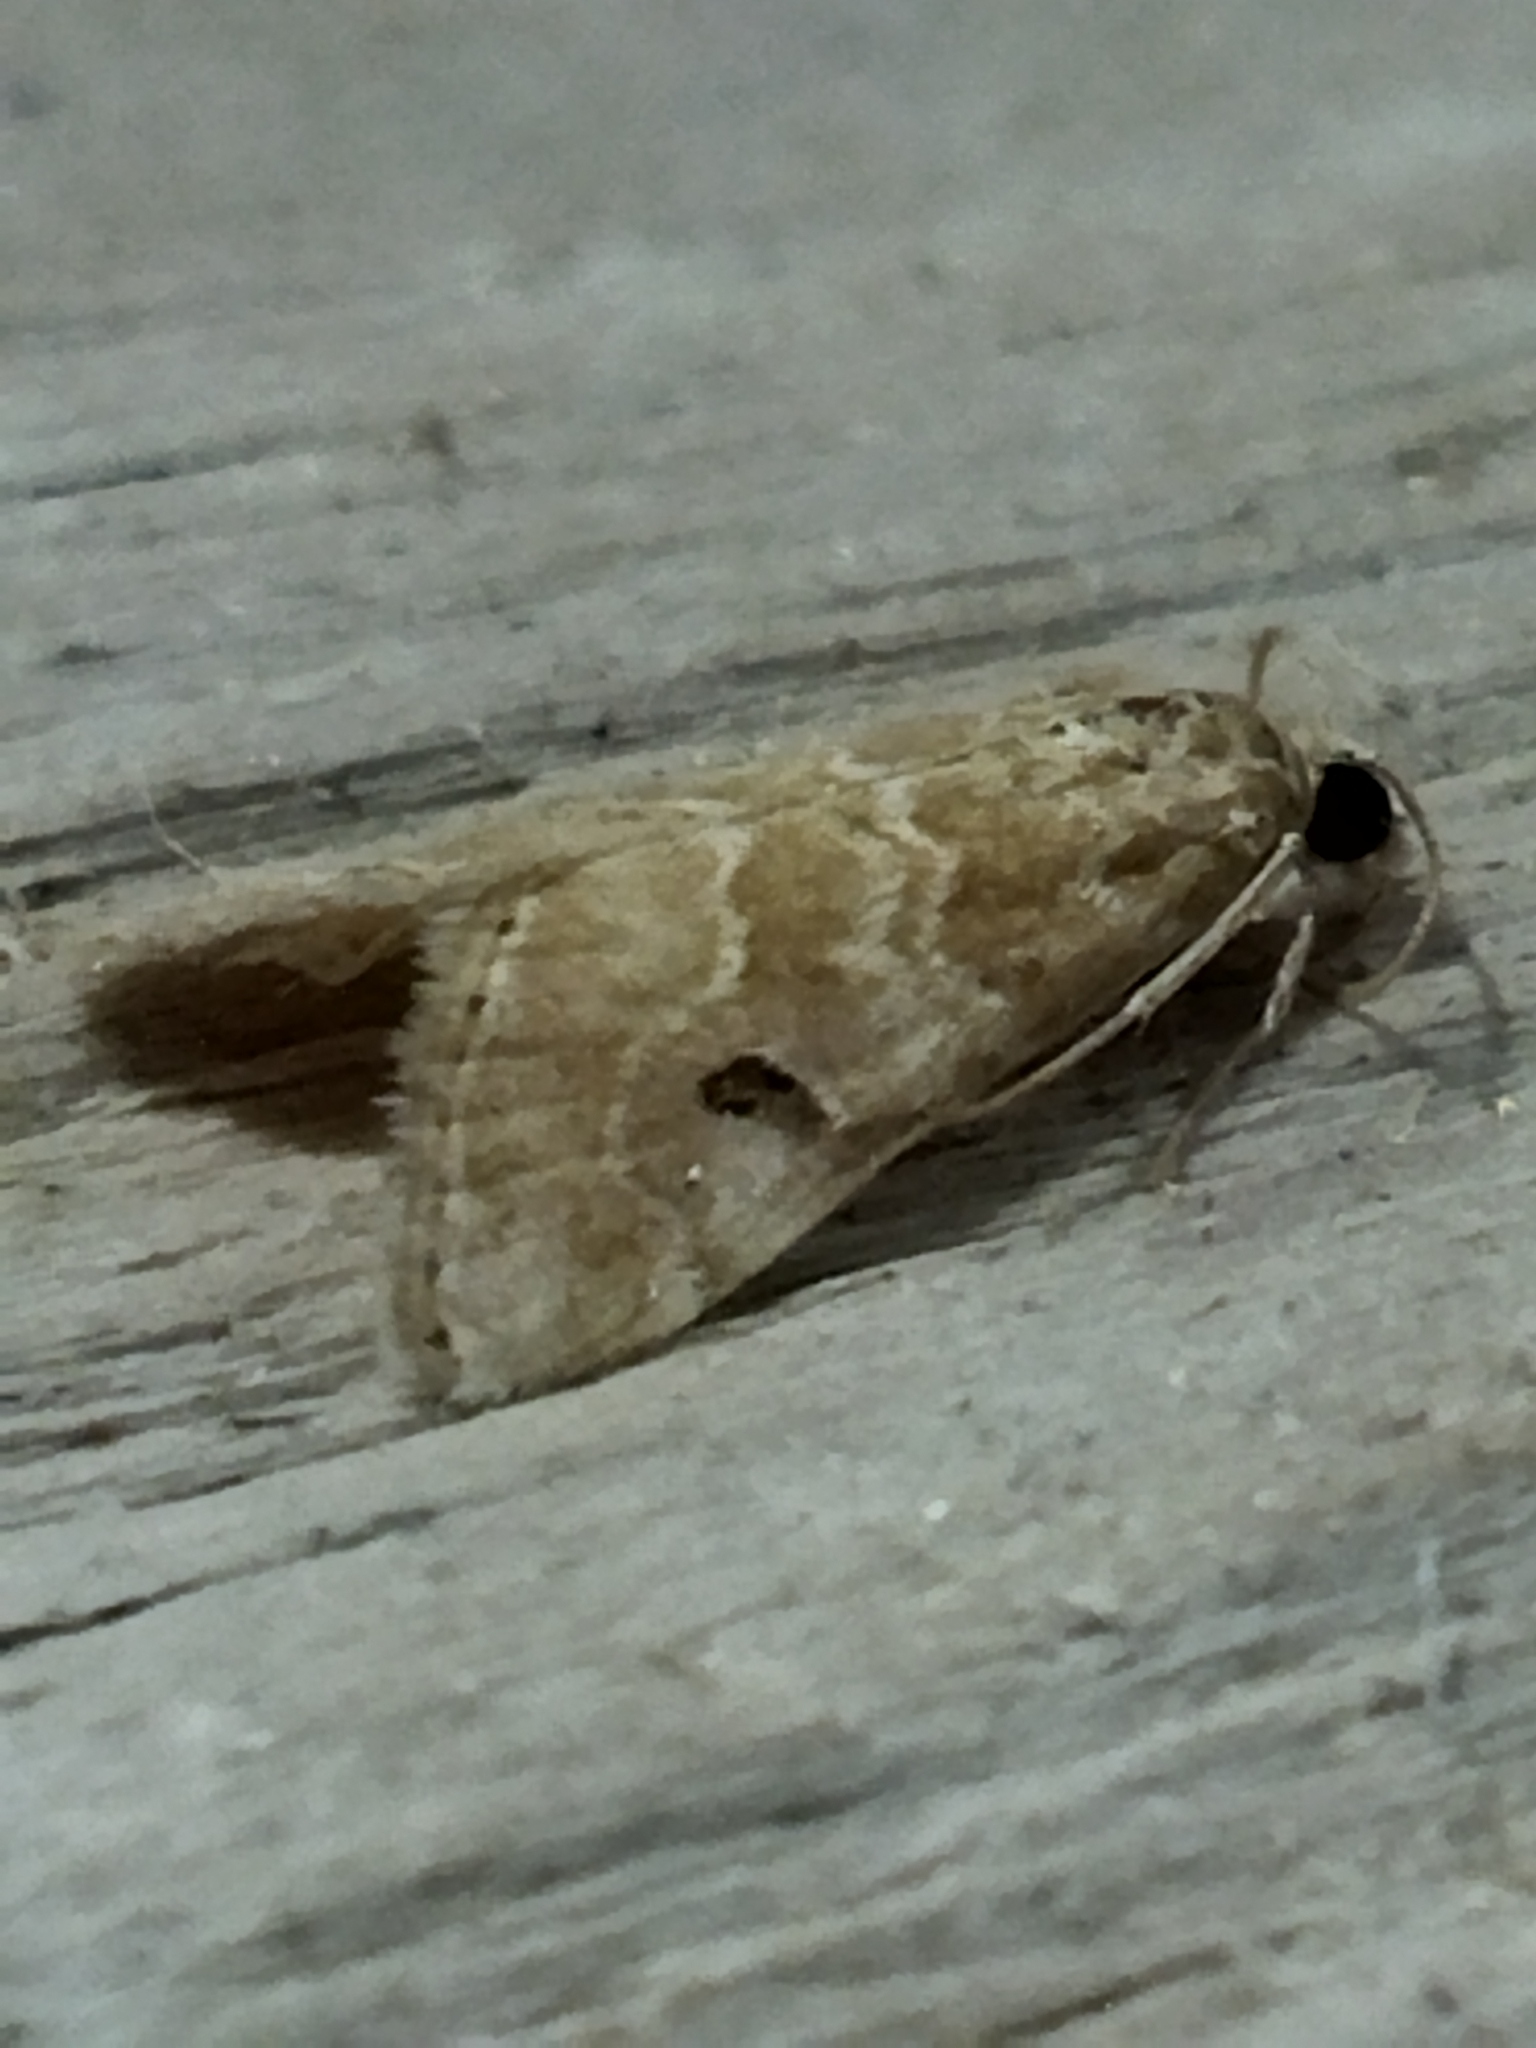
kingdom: Animalia
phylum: Arthropoda
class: Insecta
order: Lepidoptera
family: Crambidae
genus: Hellula
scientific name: Hellula undalis
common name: Cabbage webworm
